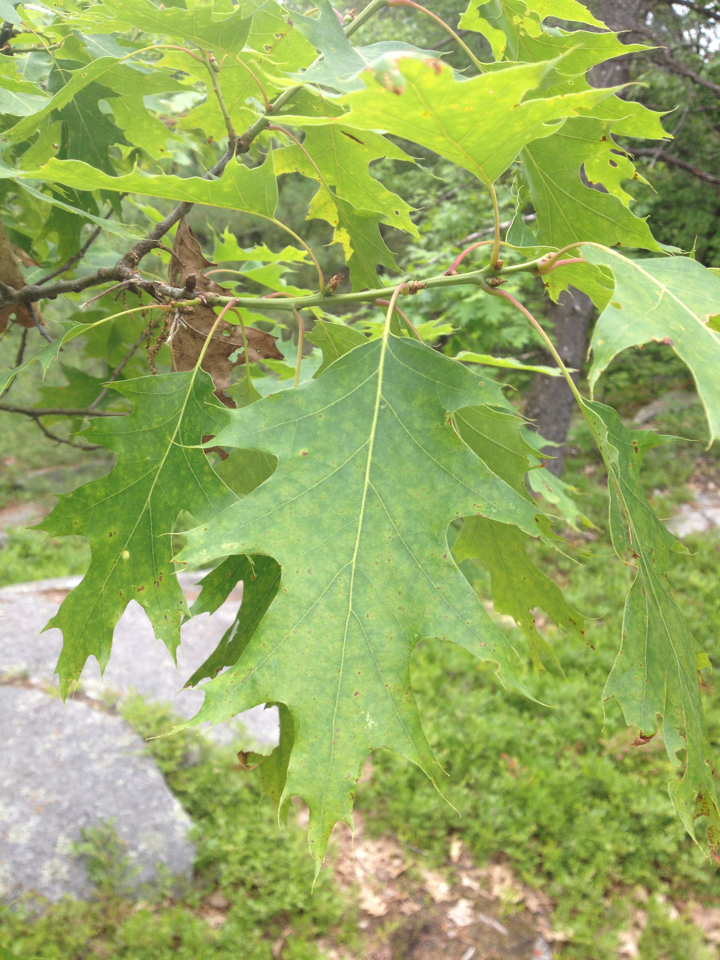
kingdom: Plantae
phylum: Tracheophyta
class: Magnoliopsida
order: Fagales
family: Fagaceae
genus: Quercus
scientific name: Quercus rubra
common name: Red oak
